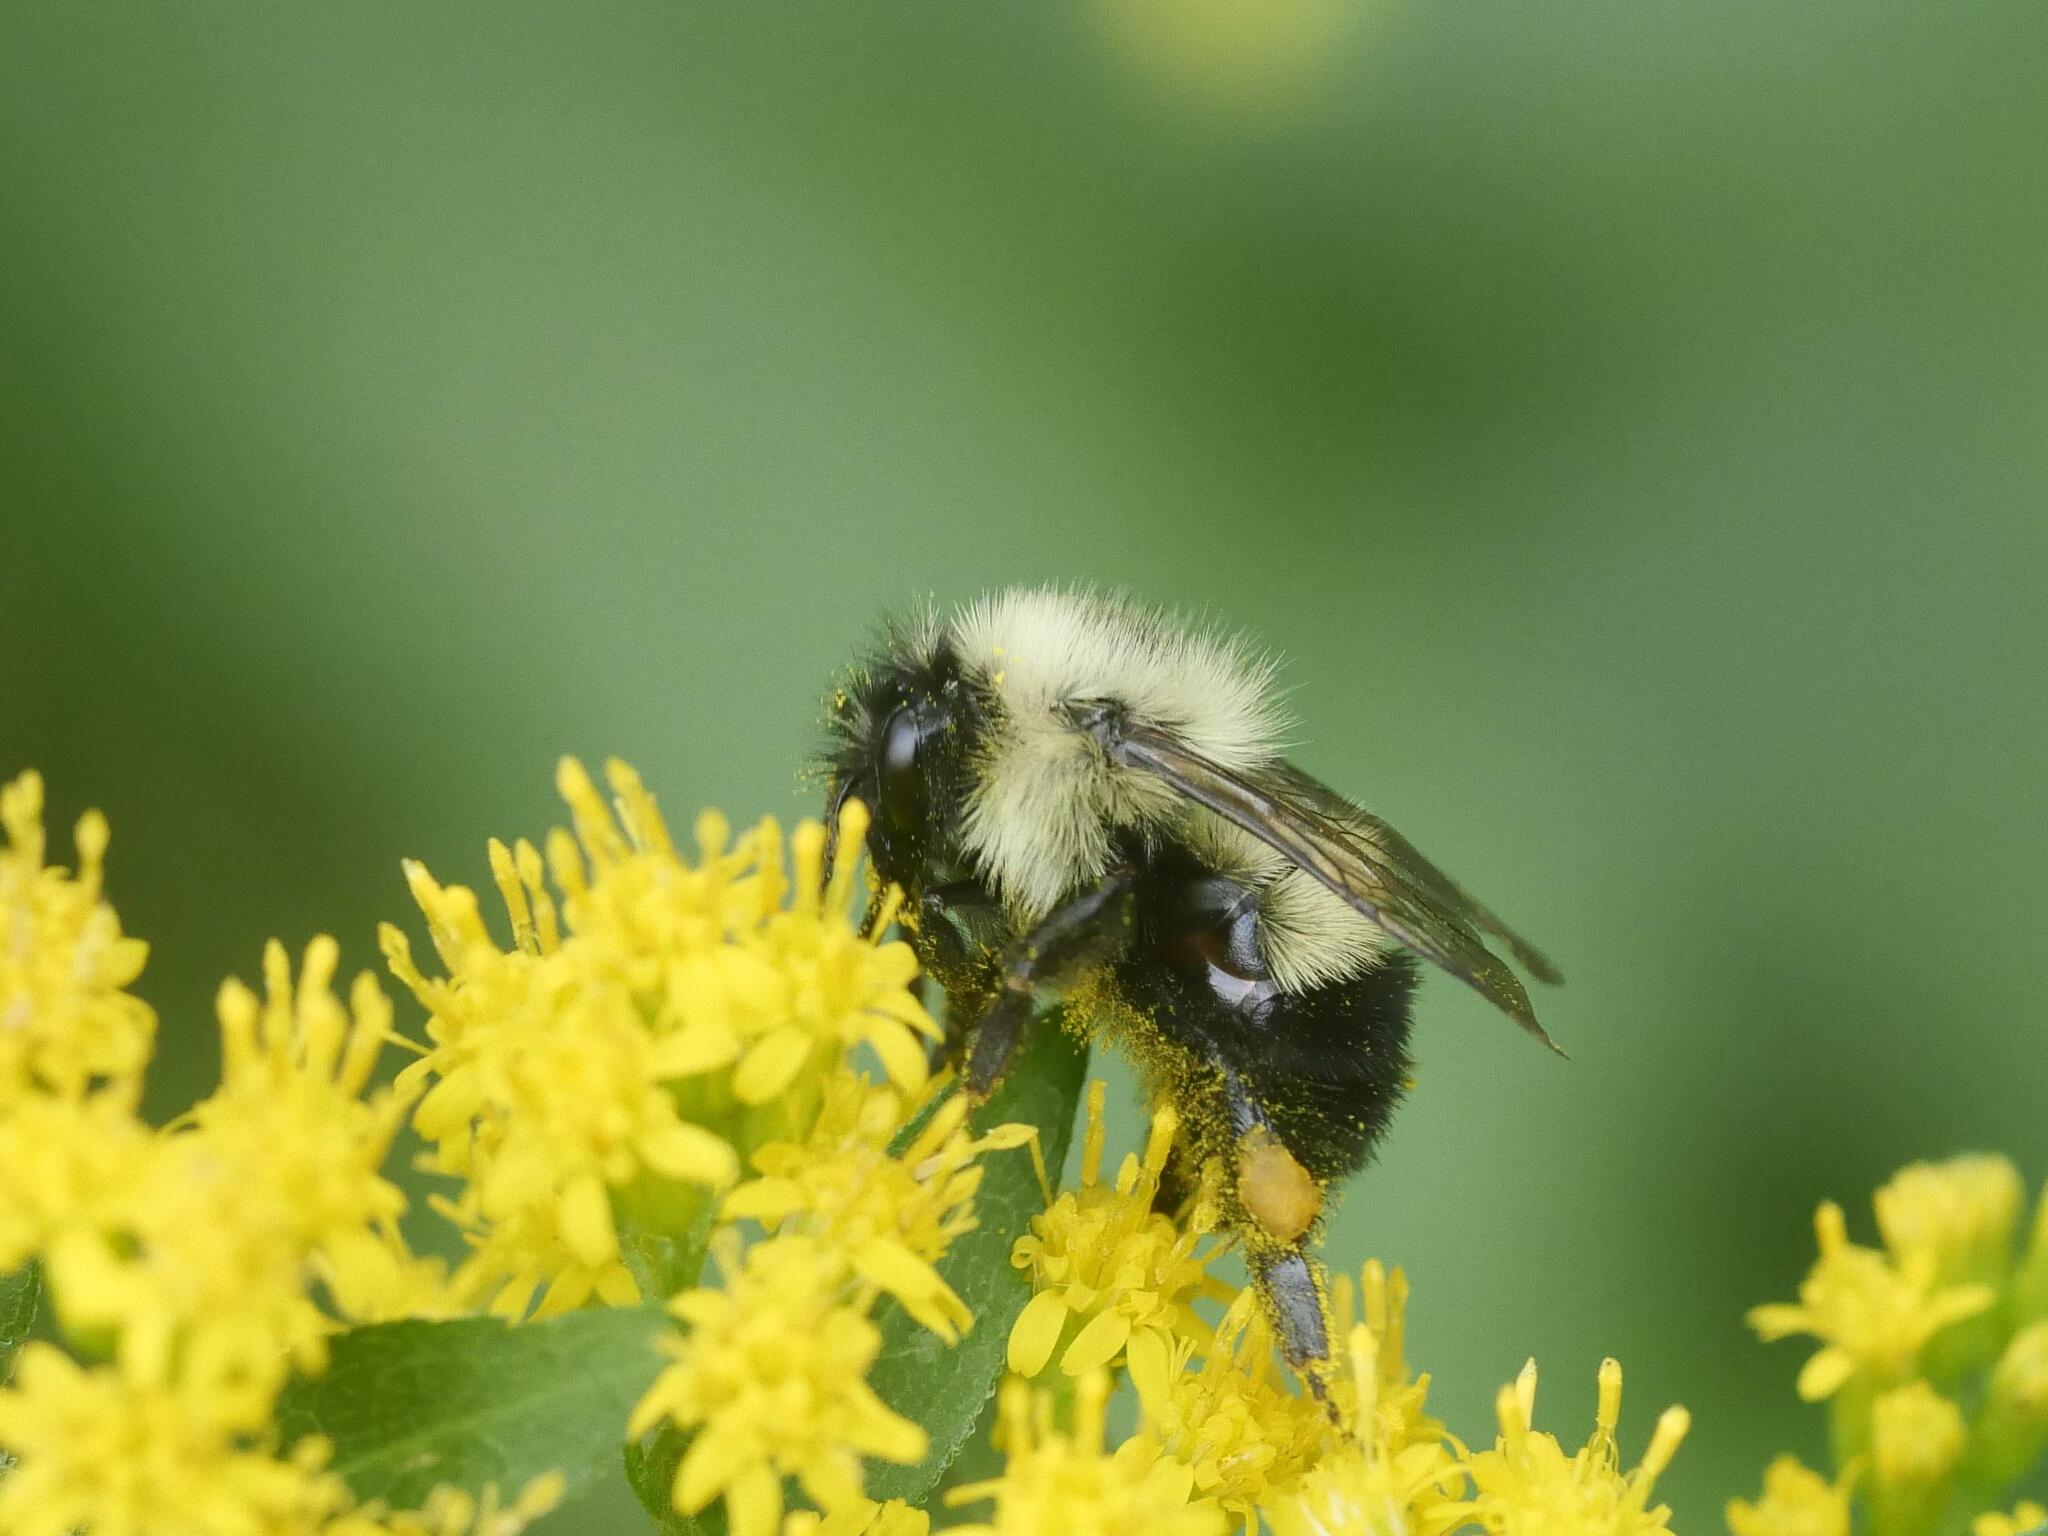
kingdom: Animalia
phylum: Arthropoda
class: Insecta
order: Hymenoptera
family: Apidae
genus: Bombus
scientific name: Bombus vagans
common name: Half-black bumble bee
